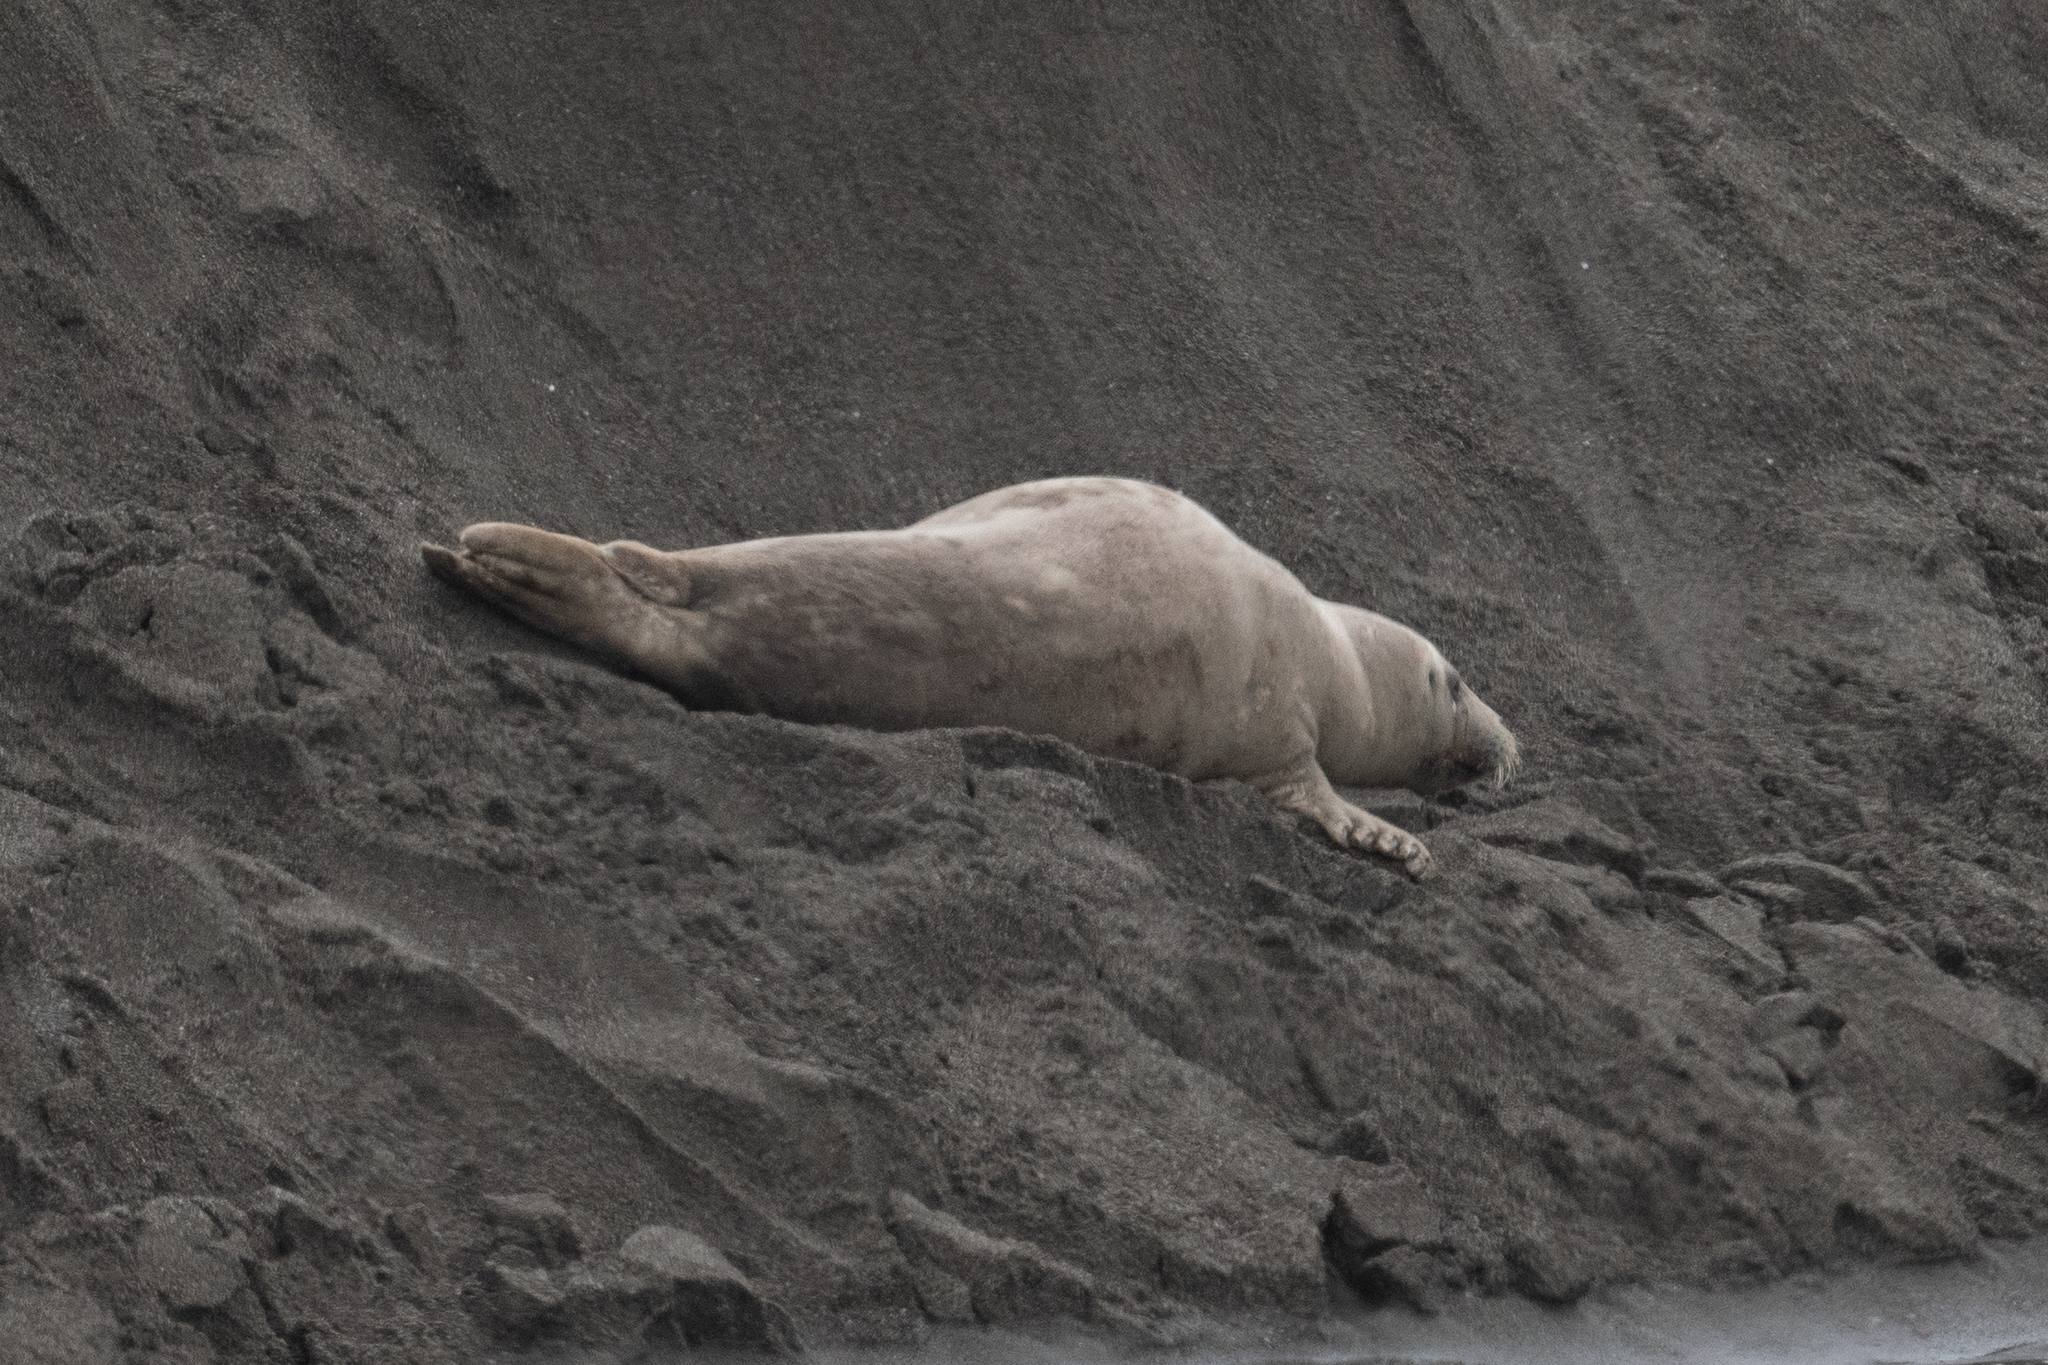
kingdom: Animalia
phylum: Chordata
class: Mammalia
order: Carnivora
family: Phocidae
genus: Phoca
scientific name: Phoca vitulina
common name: Harbor seal
